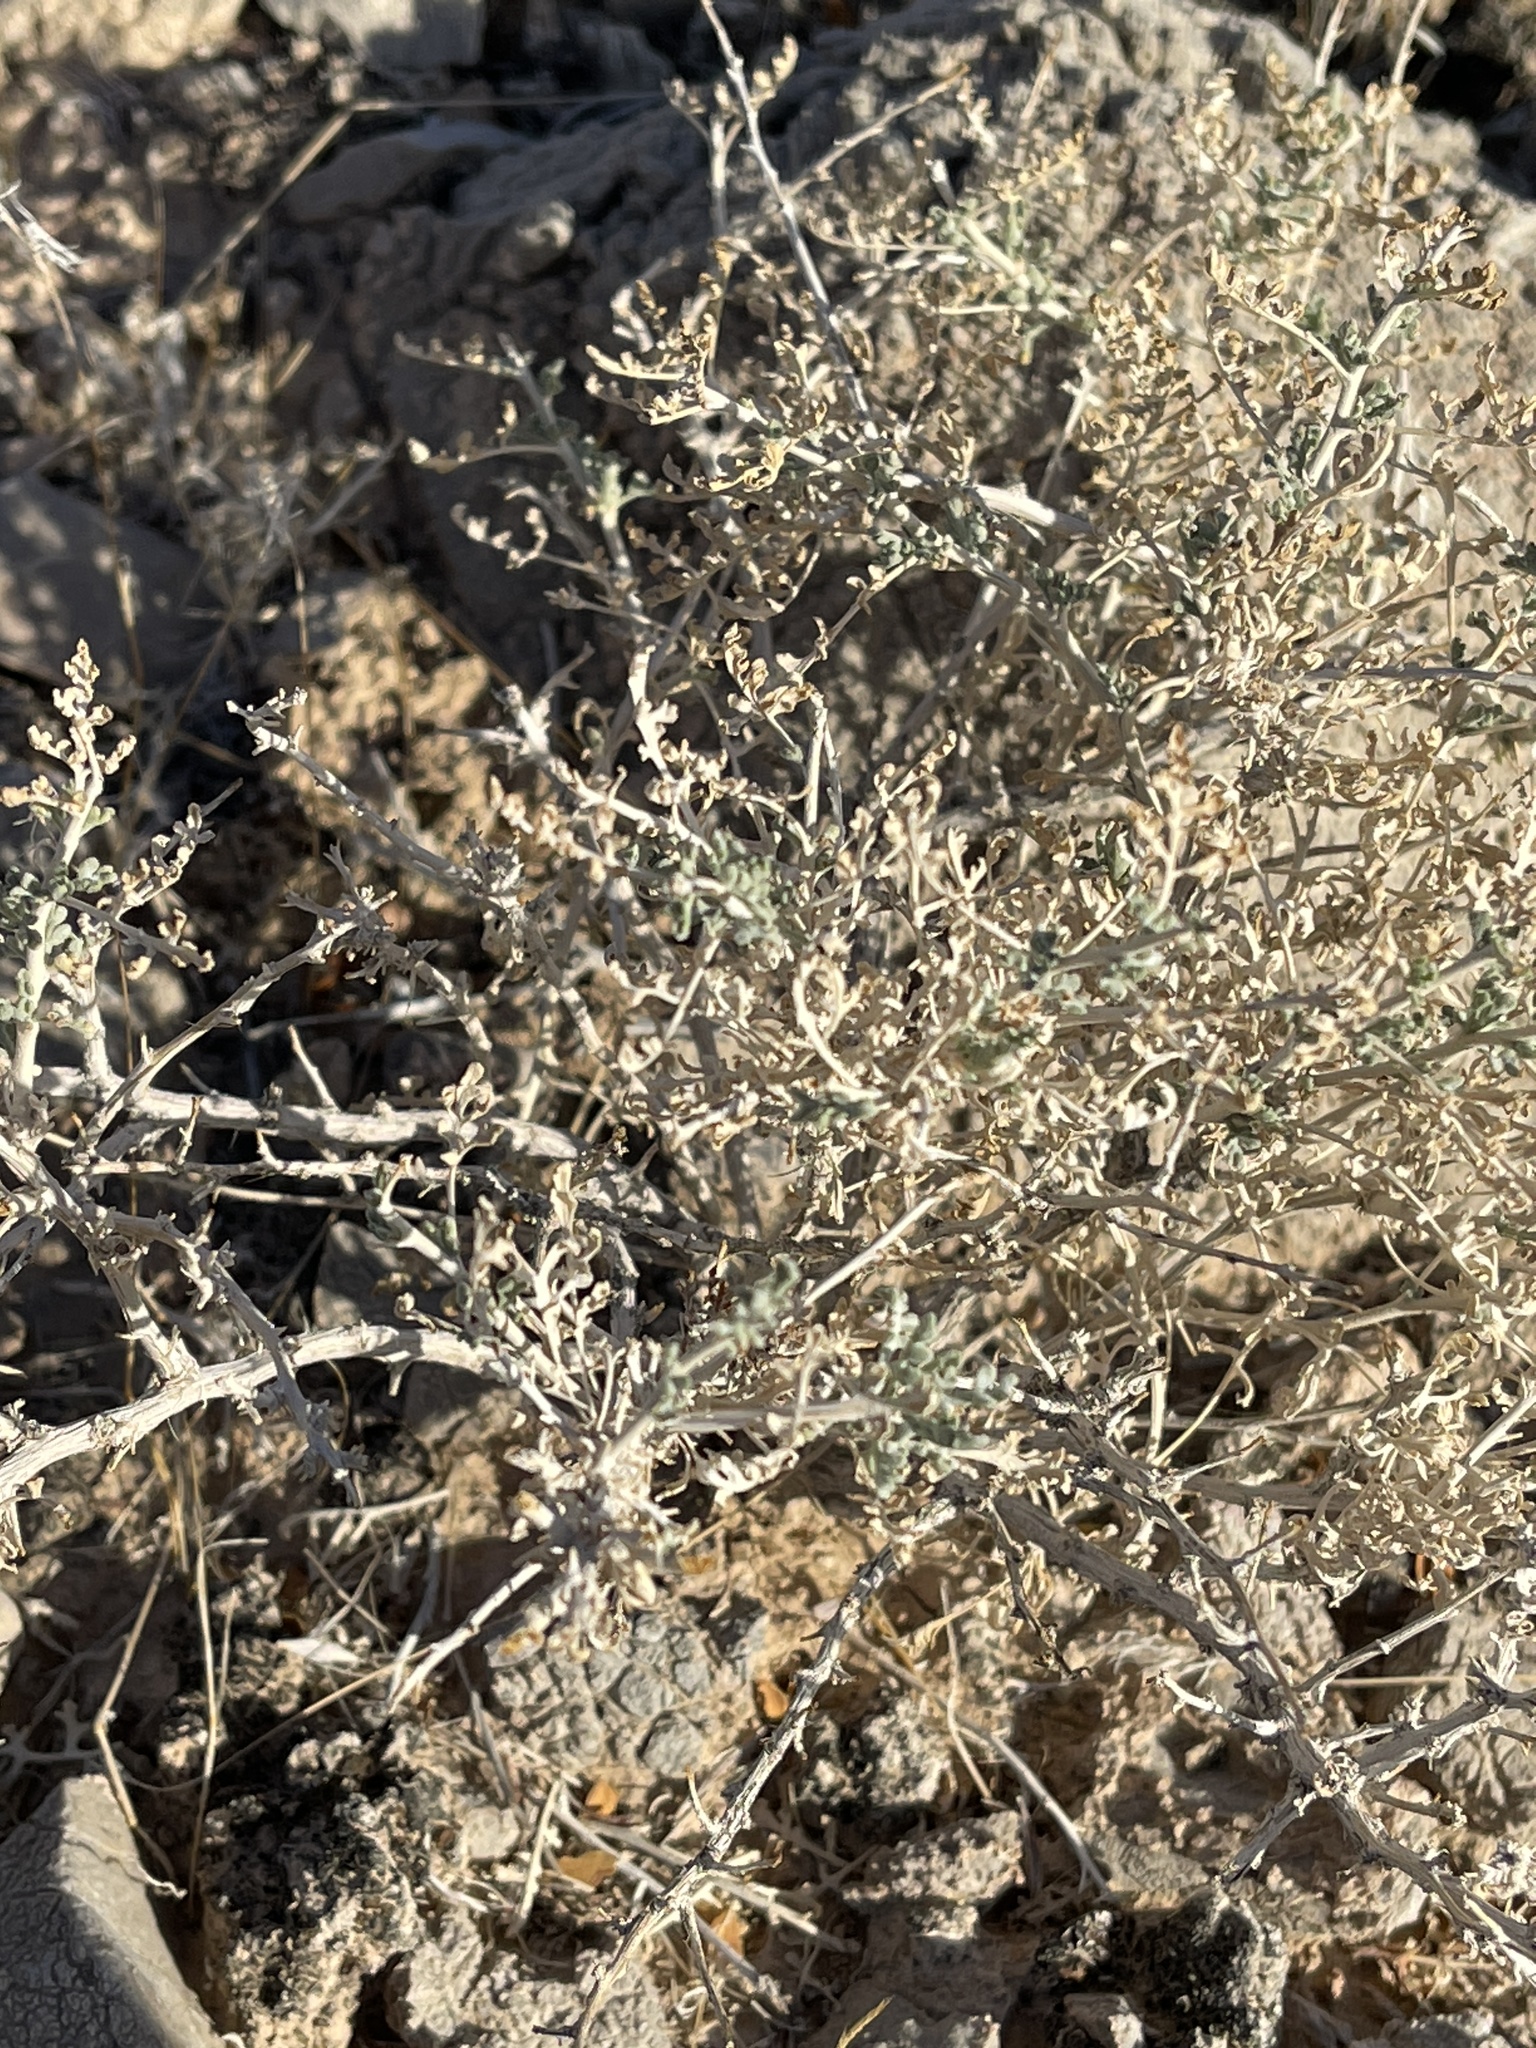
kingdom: Plantae
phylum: Tracheophyta
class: Magnoliopsida
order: Asterales
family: Asteraceae
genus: Ambrosia
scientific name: Ambrosia dumosa
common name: Bur-sage
